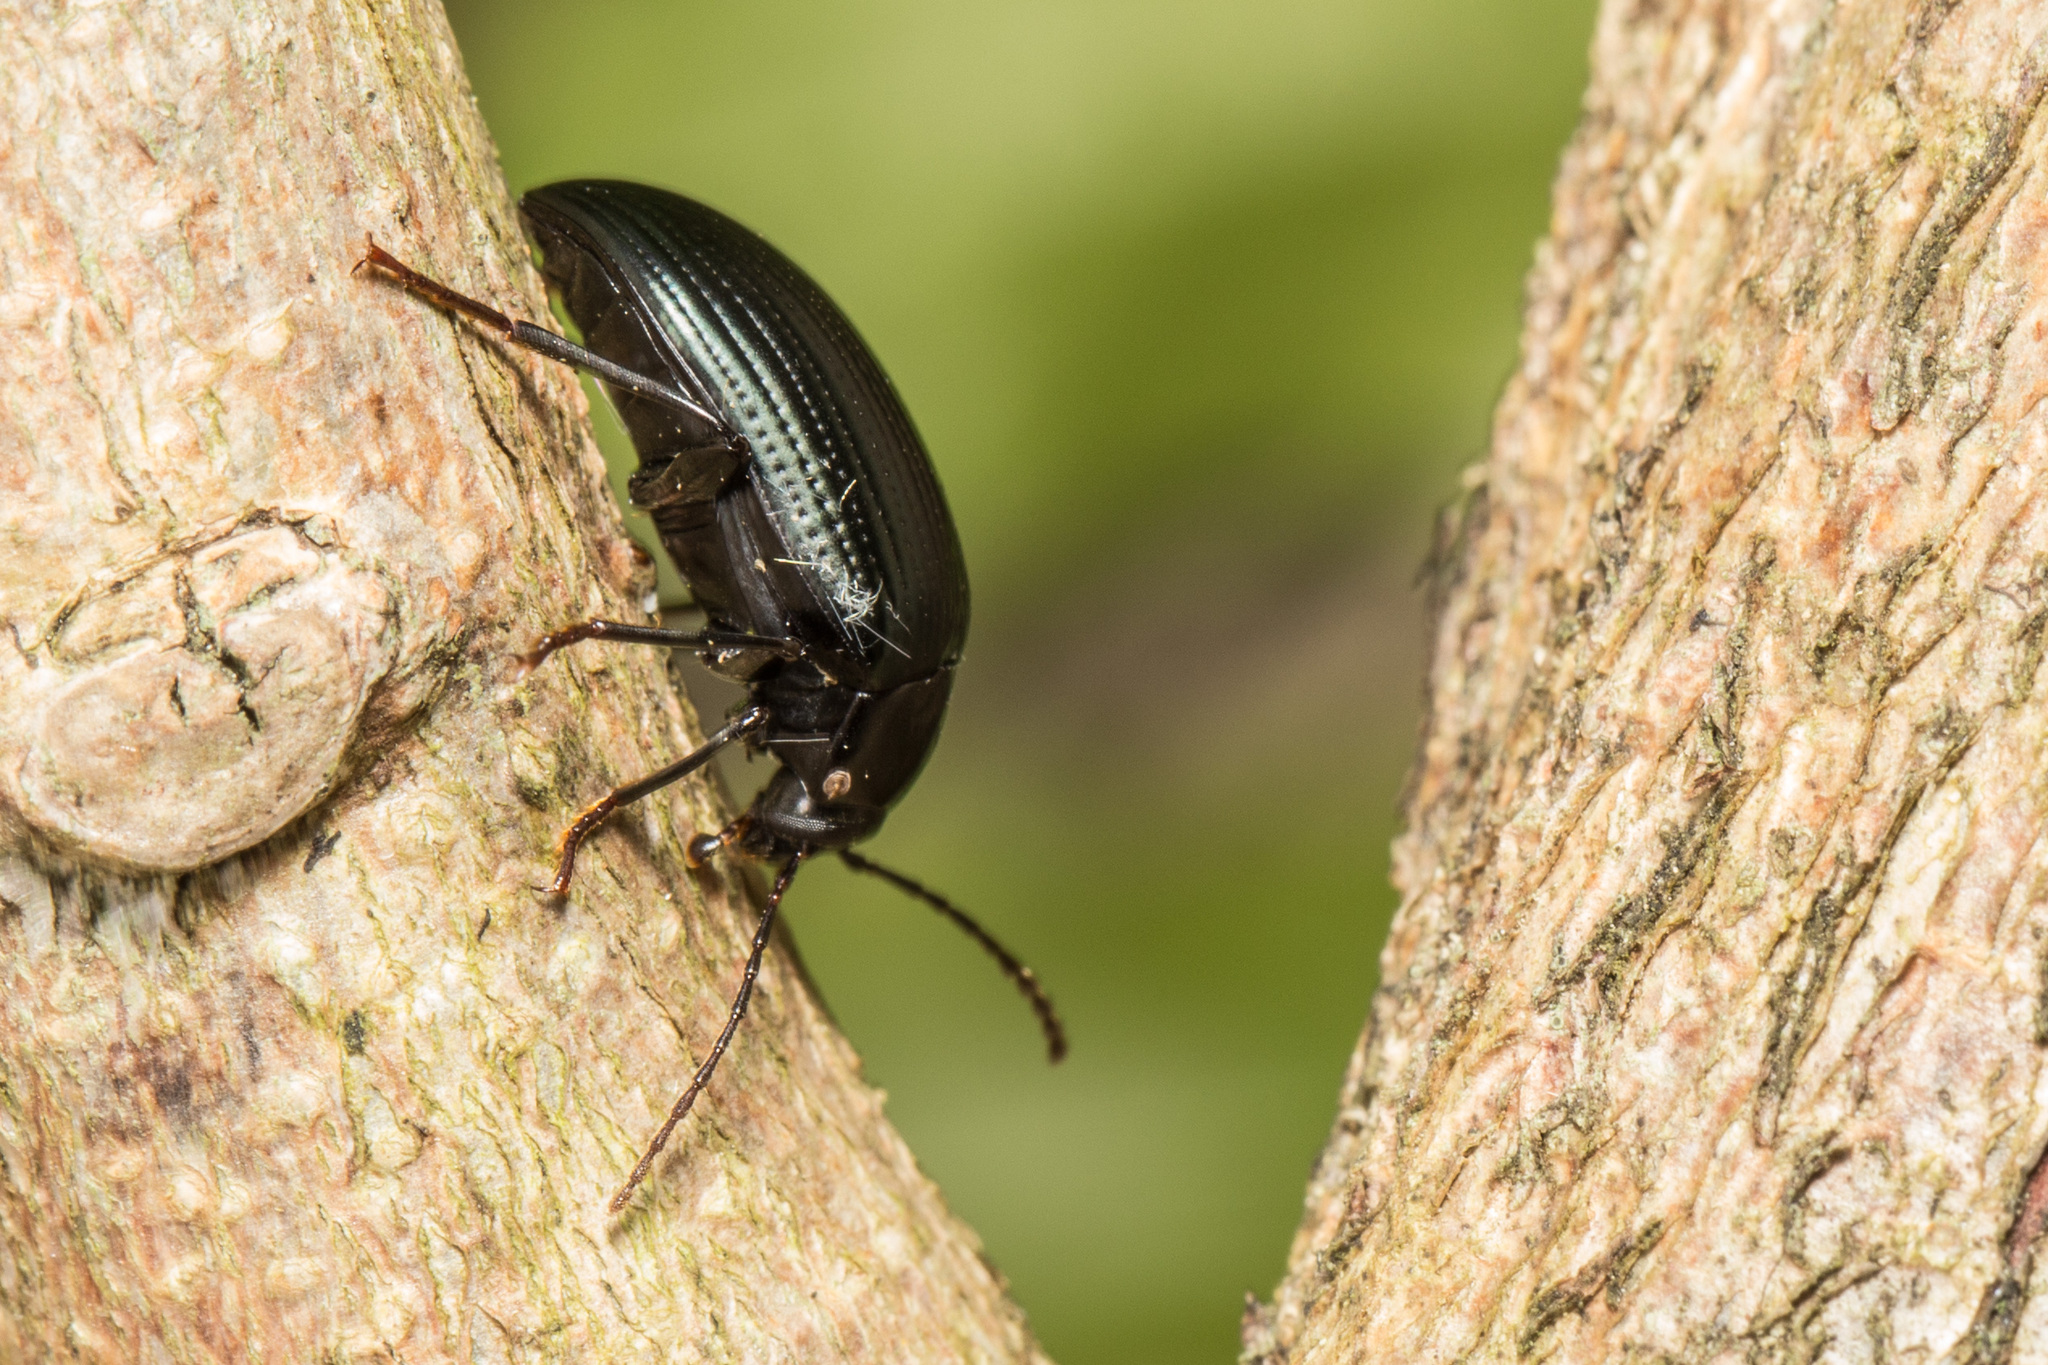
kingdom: Animalia
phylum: Arthropoda
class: Insecta
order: Coleoptera
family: Tenebrionidae
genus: Amarygmus
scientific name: Amarygmus
